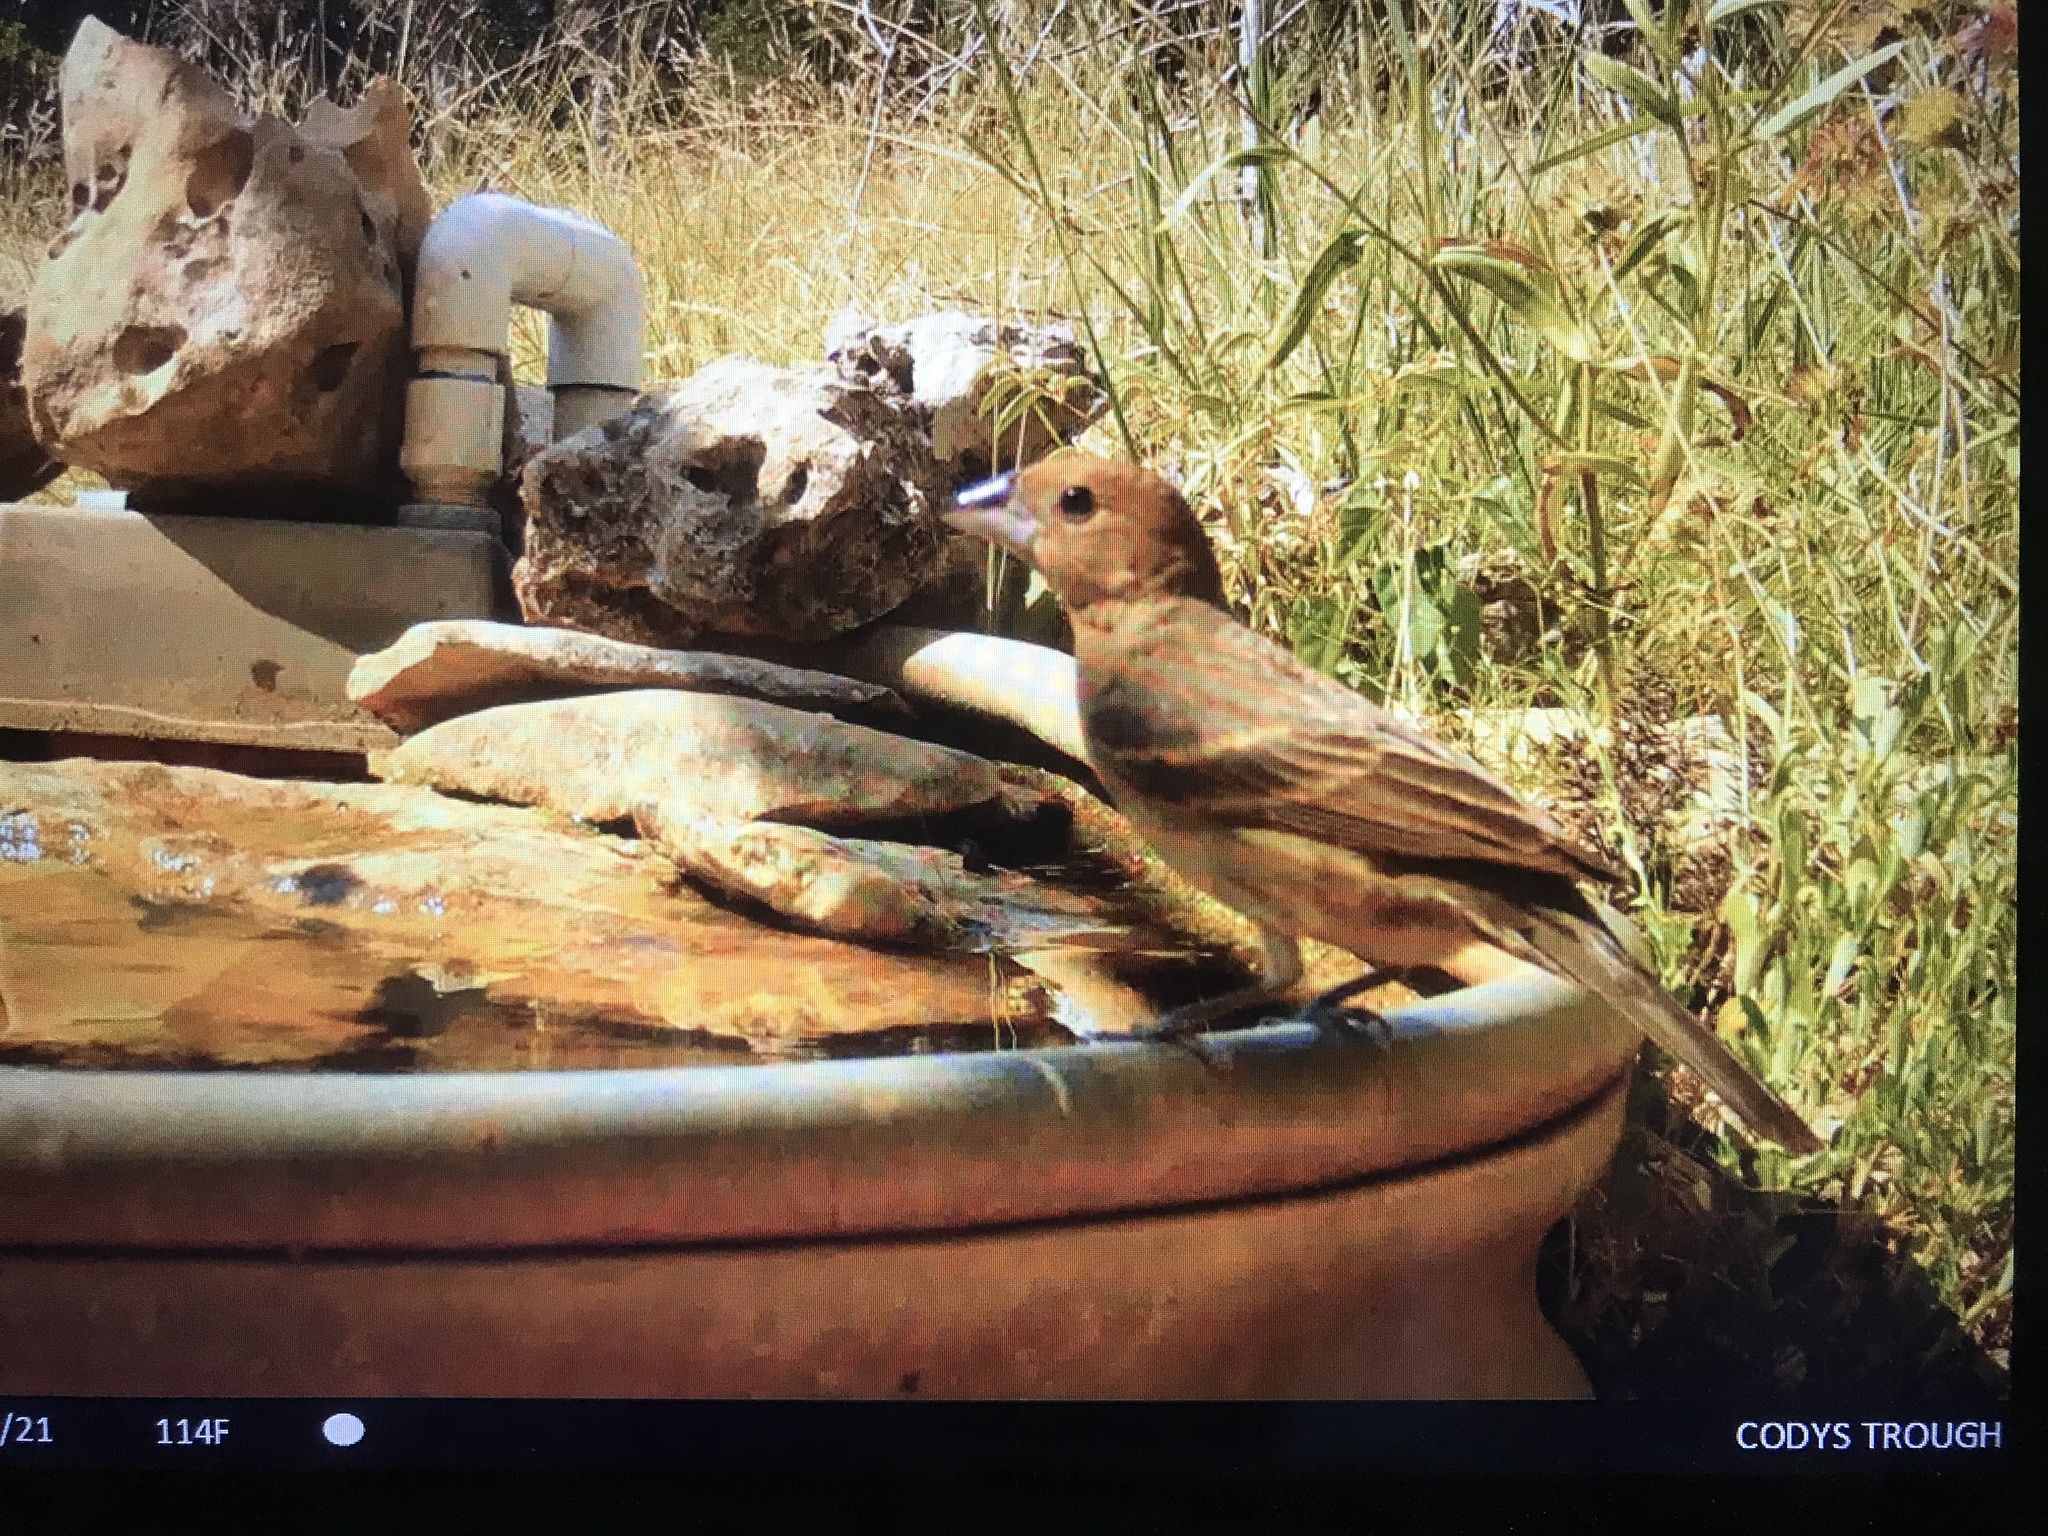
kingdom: Animalia
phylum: Chordata
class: Aves
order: Passeriformes
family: Cardinalidae
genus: Passerina
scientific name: Passerina caerulea
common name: Blue grosbeak
